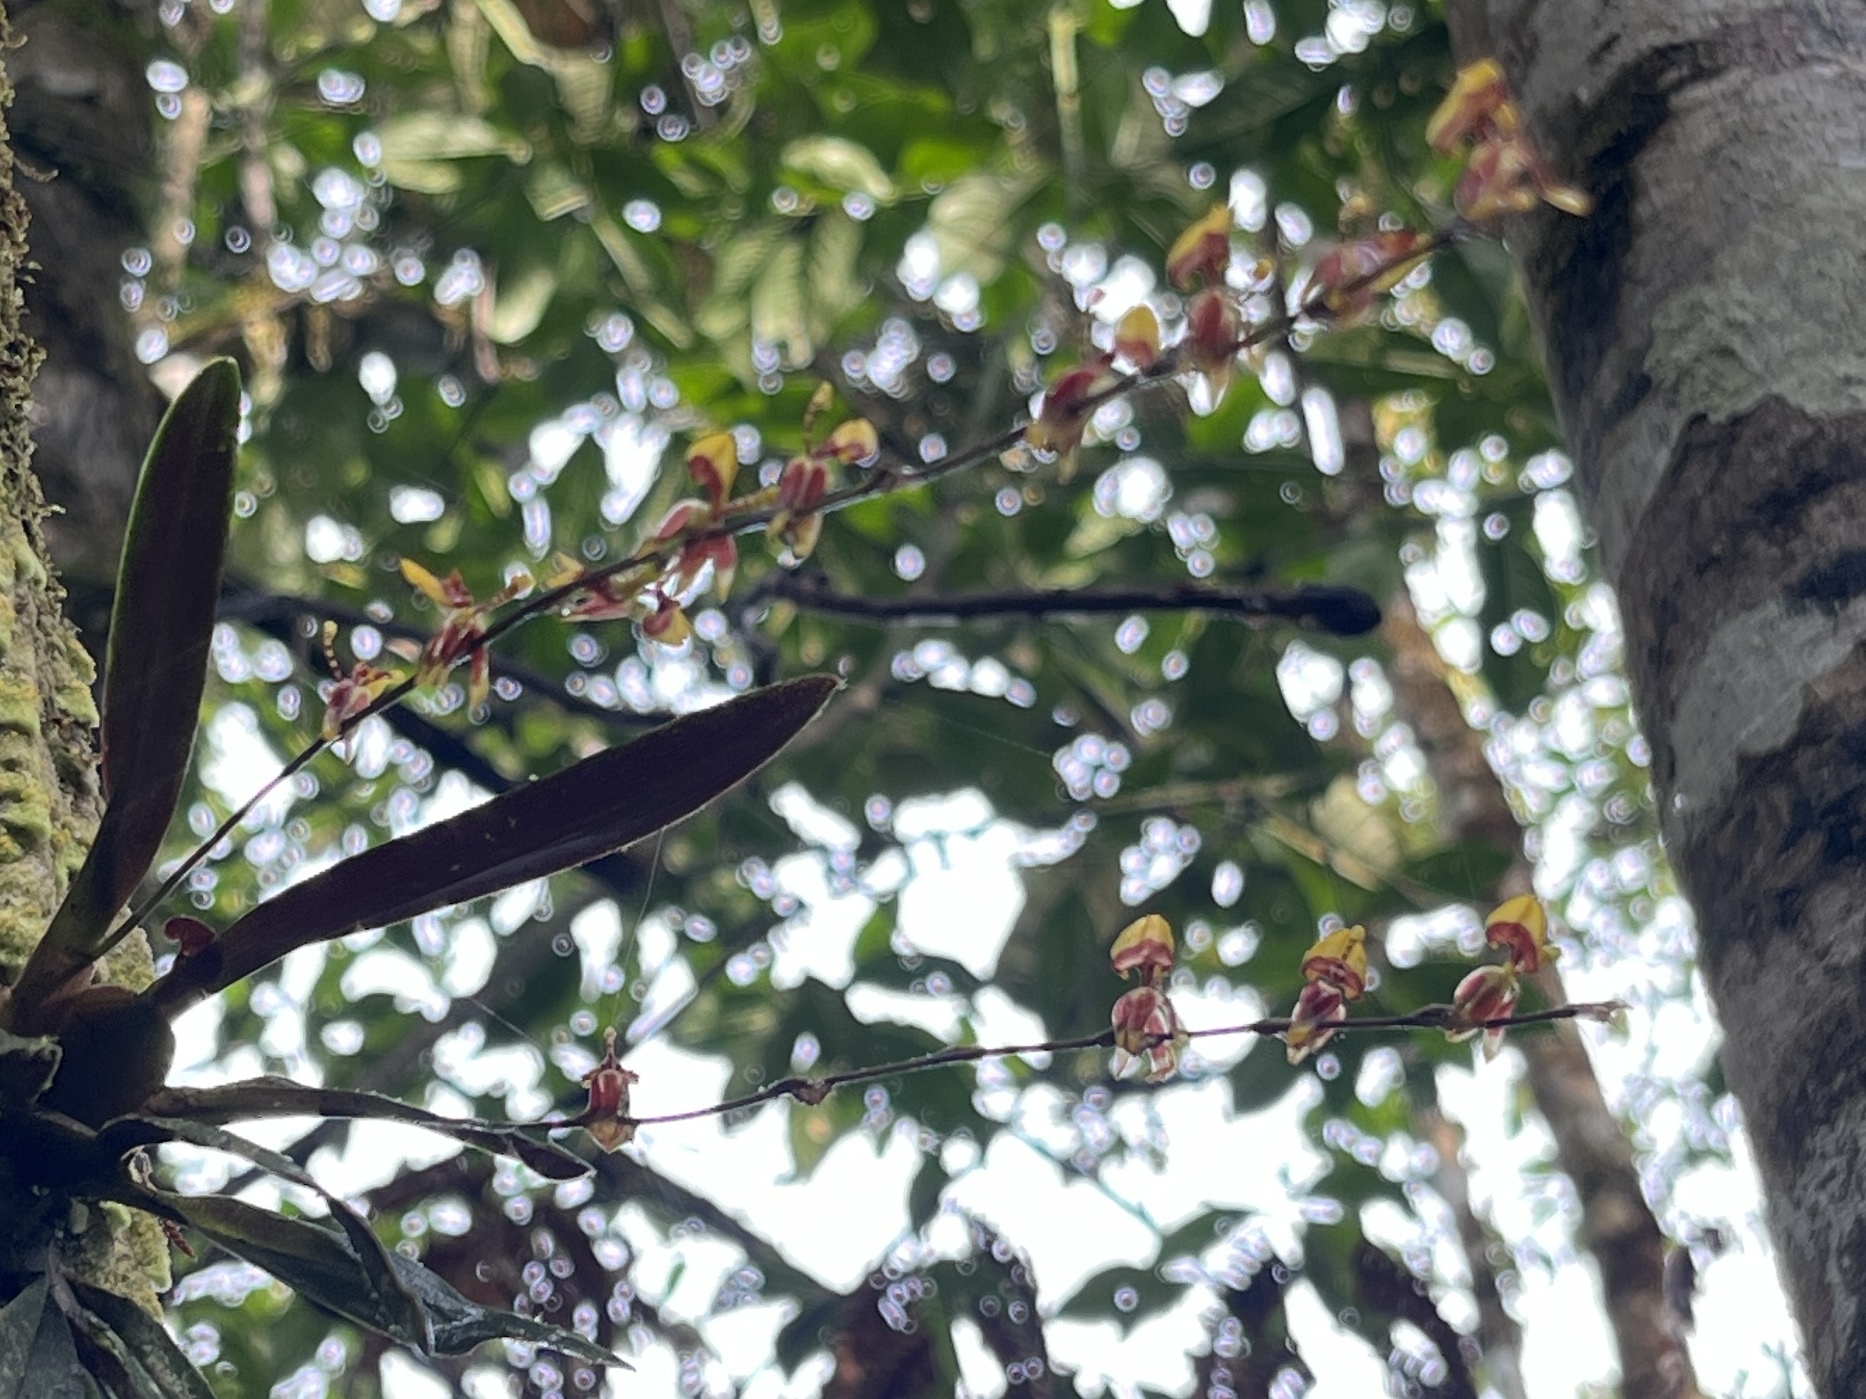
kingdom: Plantae
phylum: Tracheophyta
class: Liliopsida
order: Asparagales
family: Orchidaceae
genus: Oncidium
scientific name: Oncidium poikilostalix
